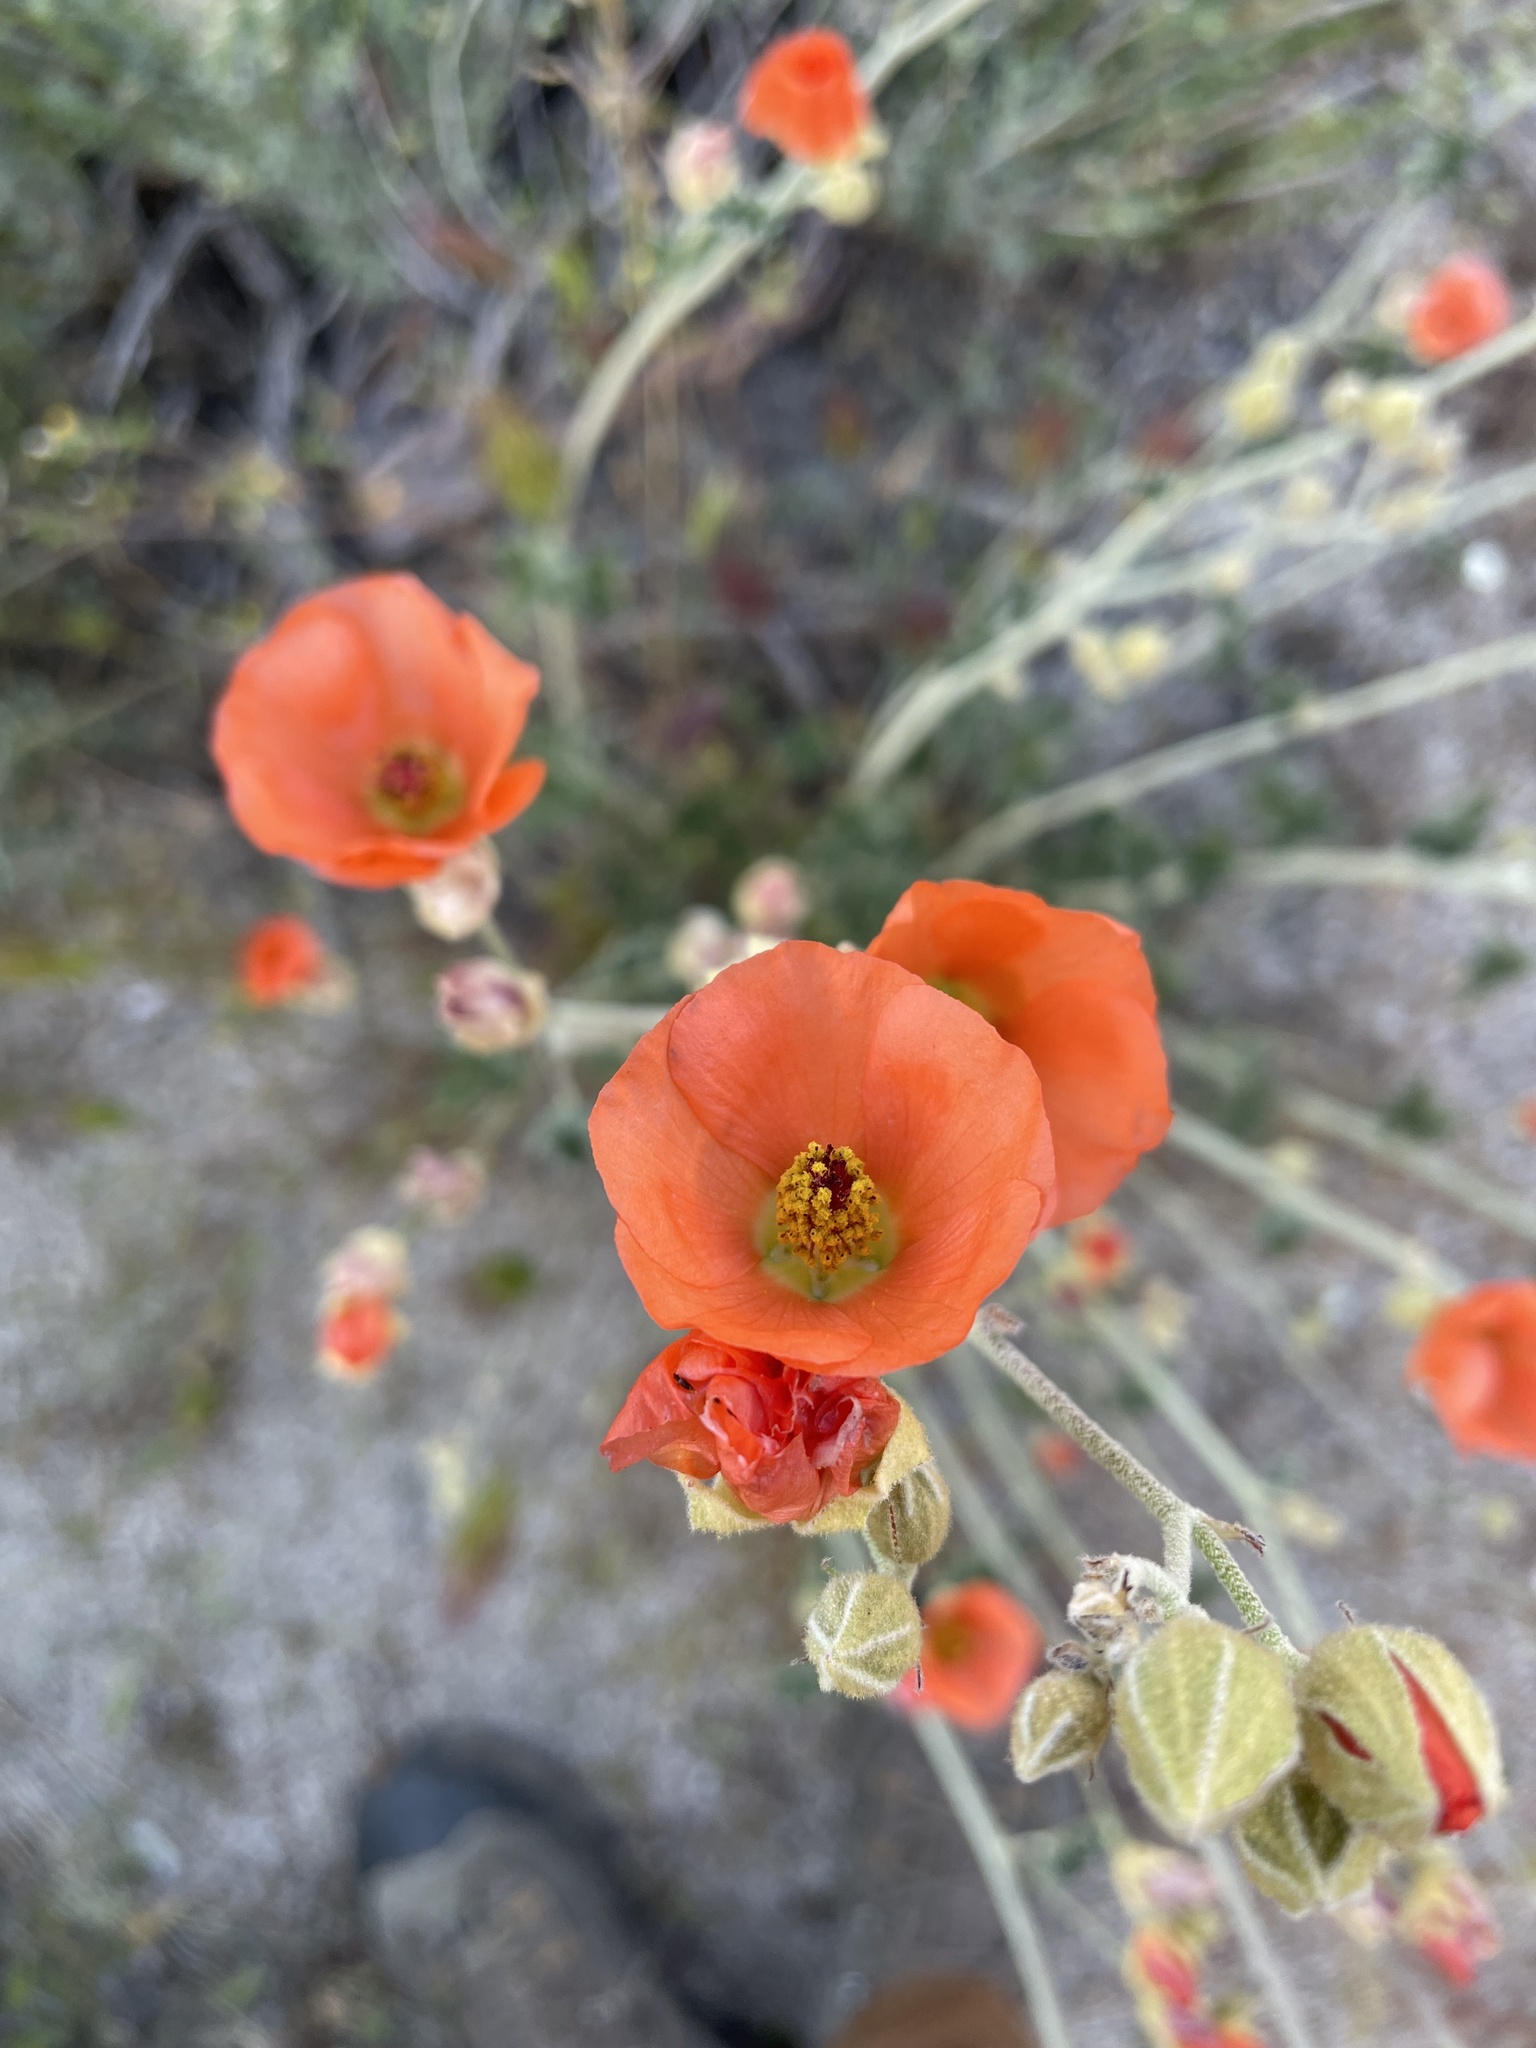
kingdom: Plantae
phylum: Tracheophyta
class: Magnoliopsida
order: Malvales
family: Malvaceae
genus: Sphaeralcea
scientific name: Sphaeralcea ambigua
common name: Apricot globe-mallow
